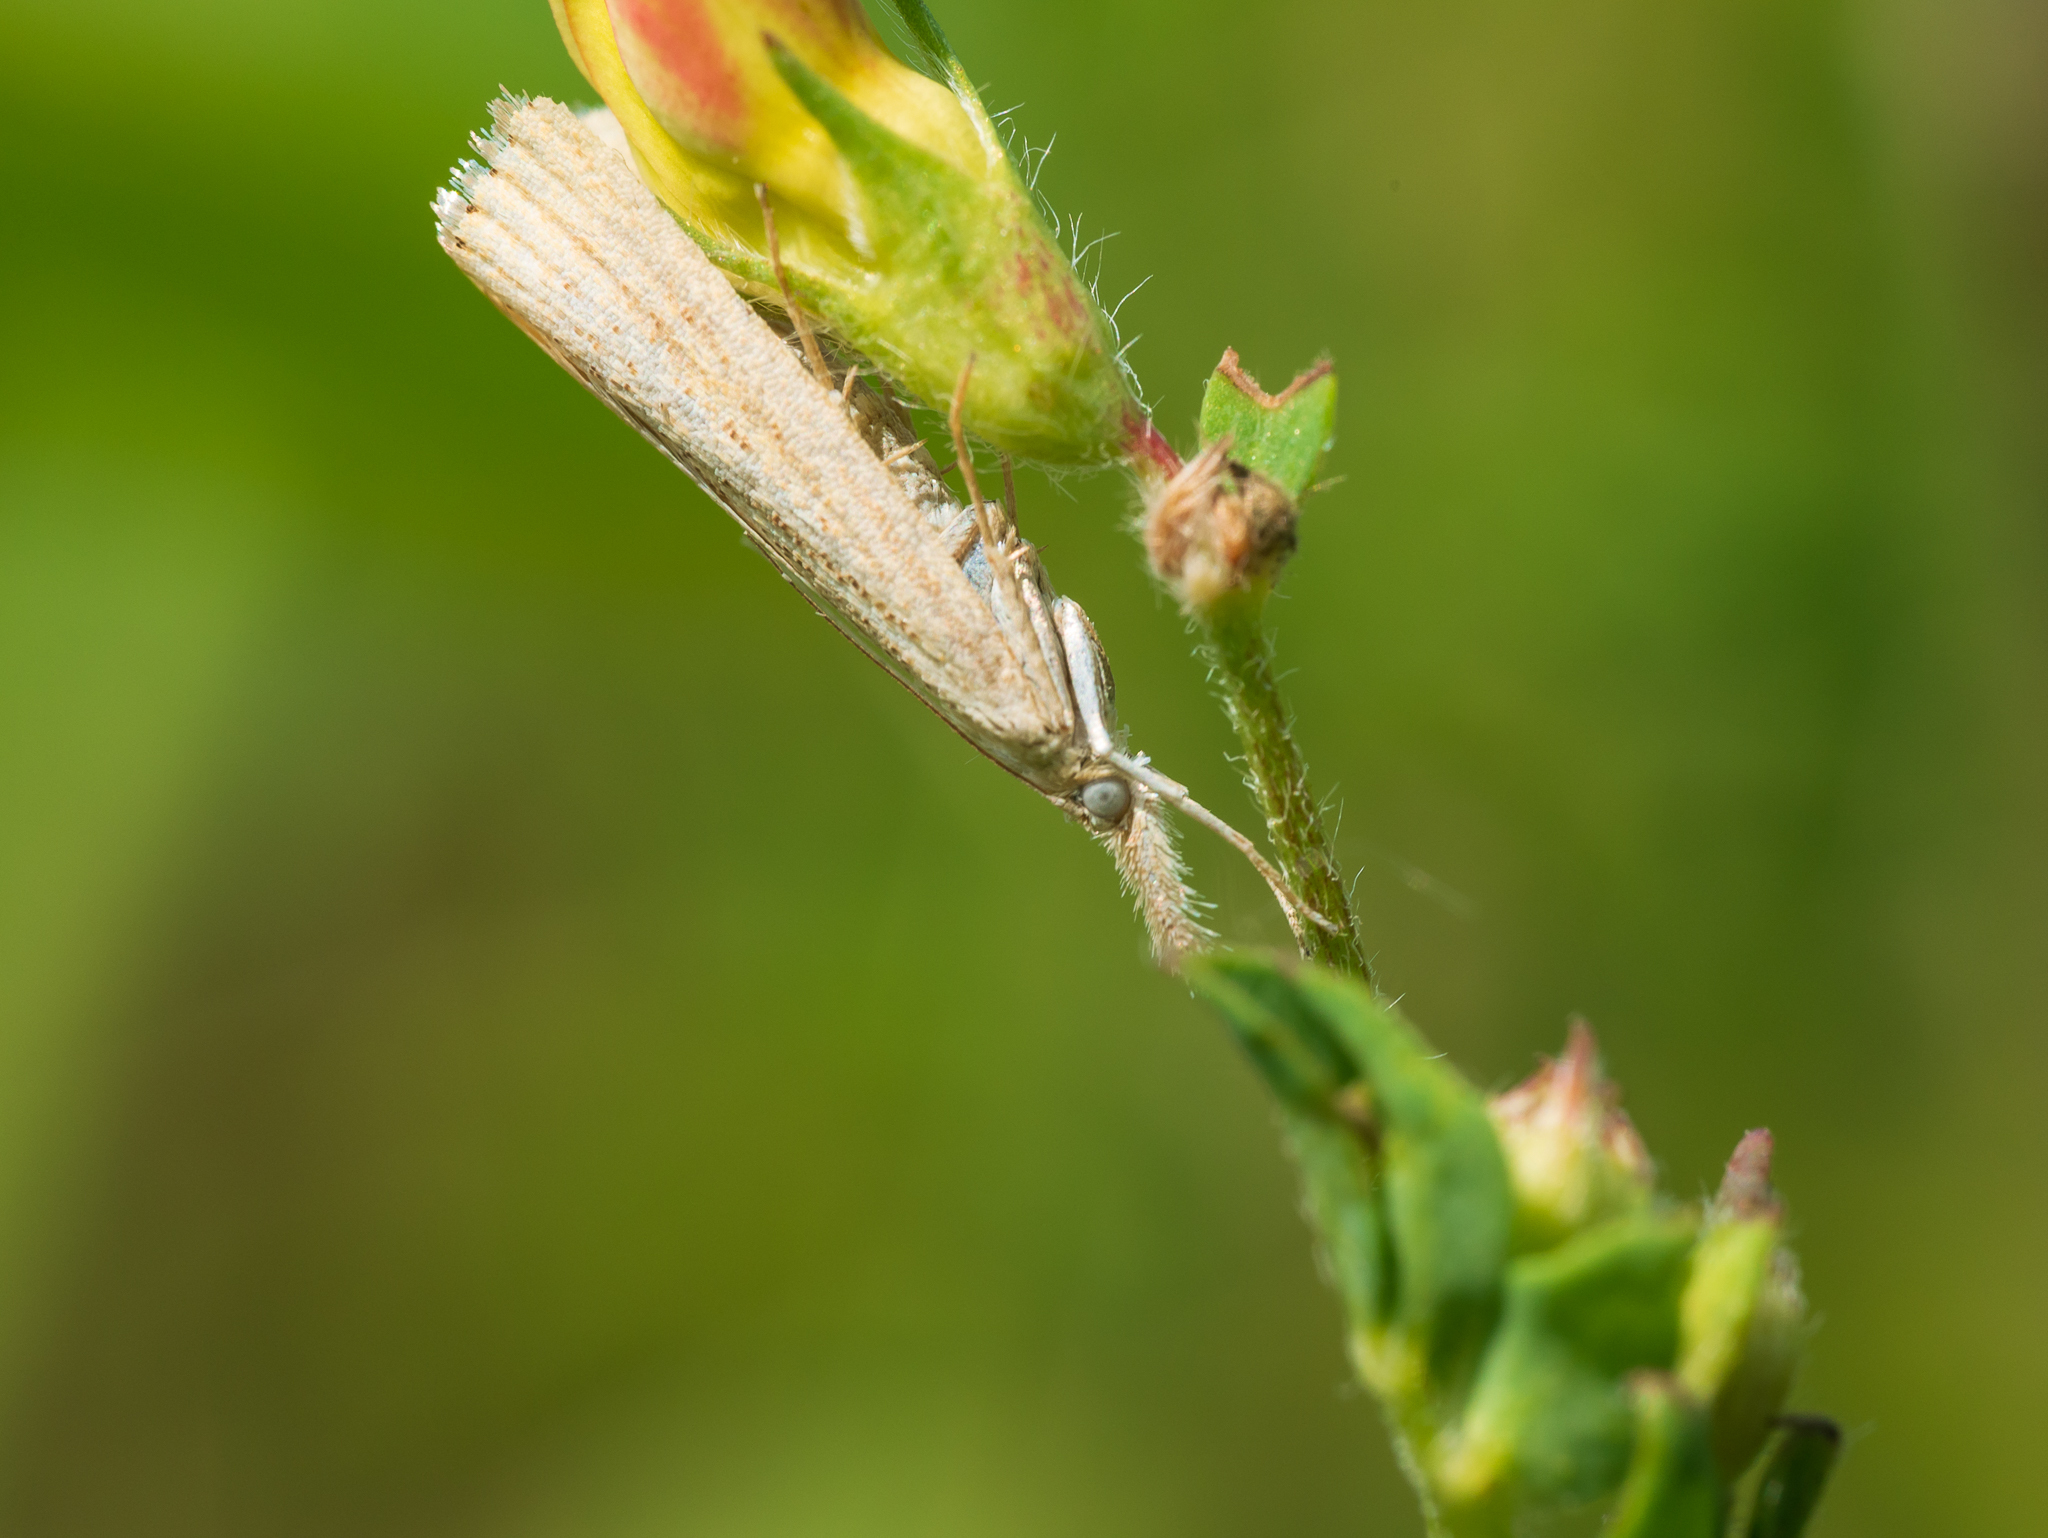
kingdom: Animalia
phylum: Arthropoda
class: Insecta
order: Lepidoptera
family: Crambidae
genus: Agriphila
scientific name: Agriphila straminella
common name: Straw grass-veneer
